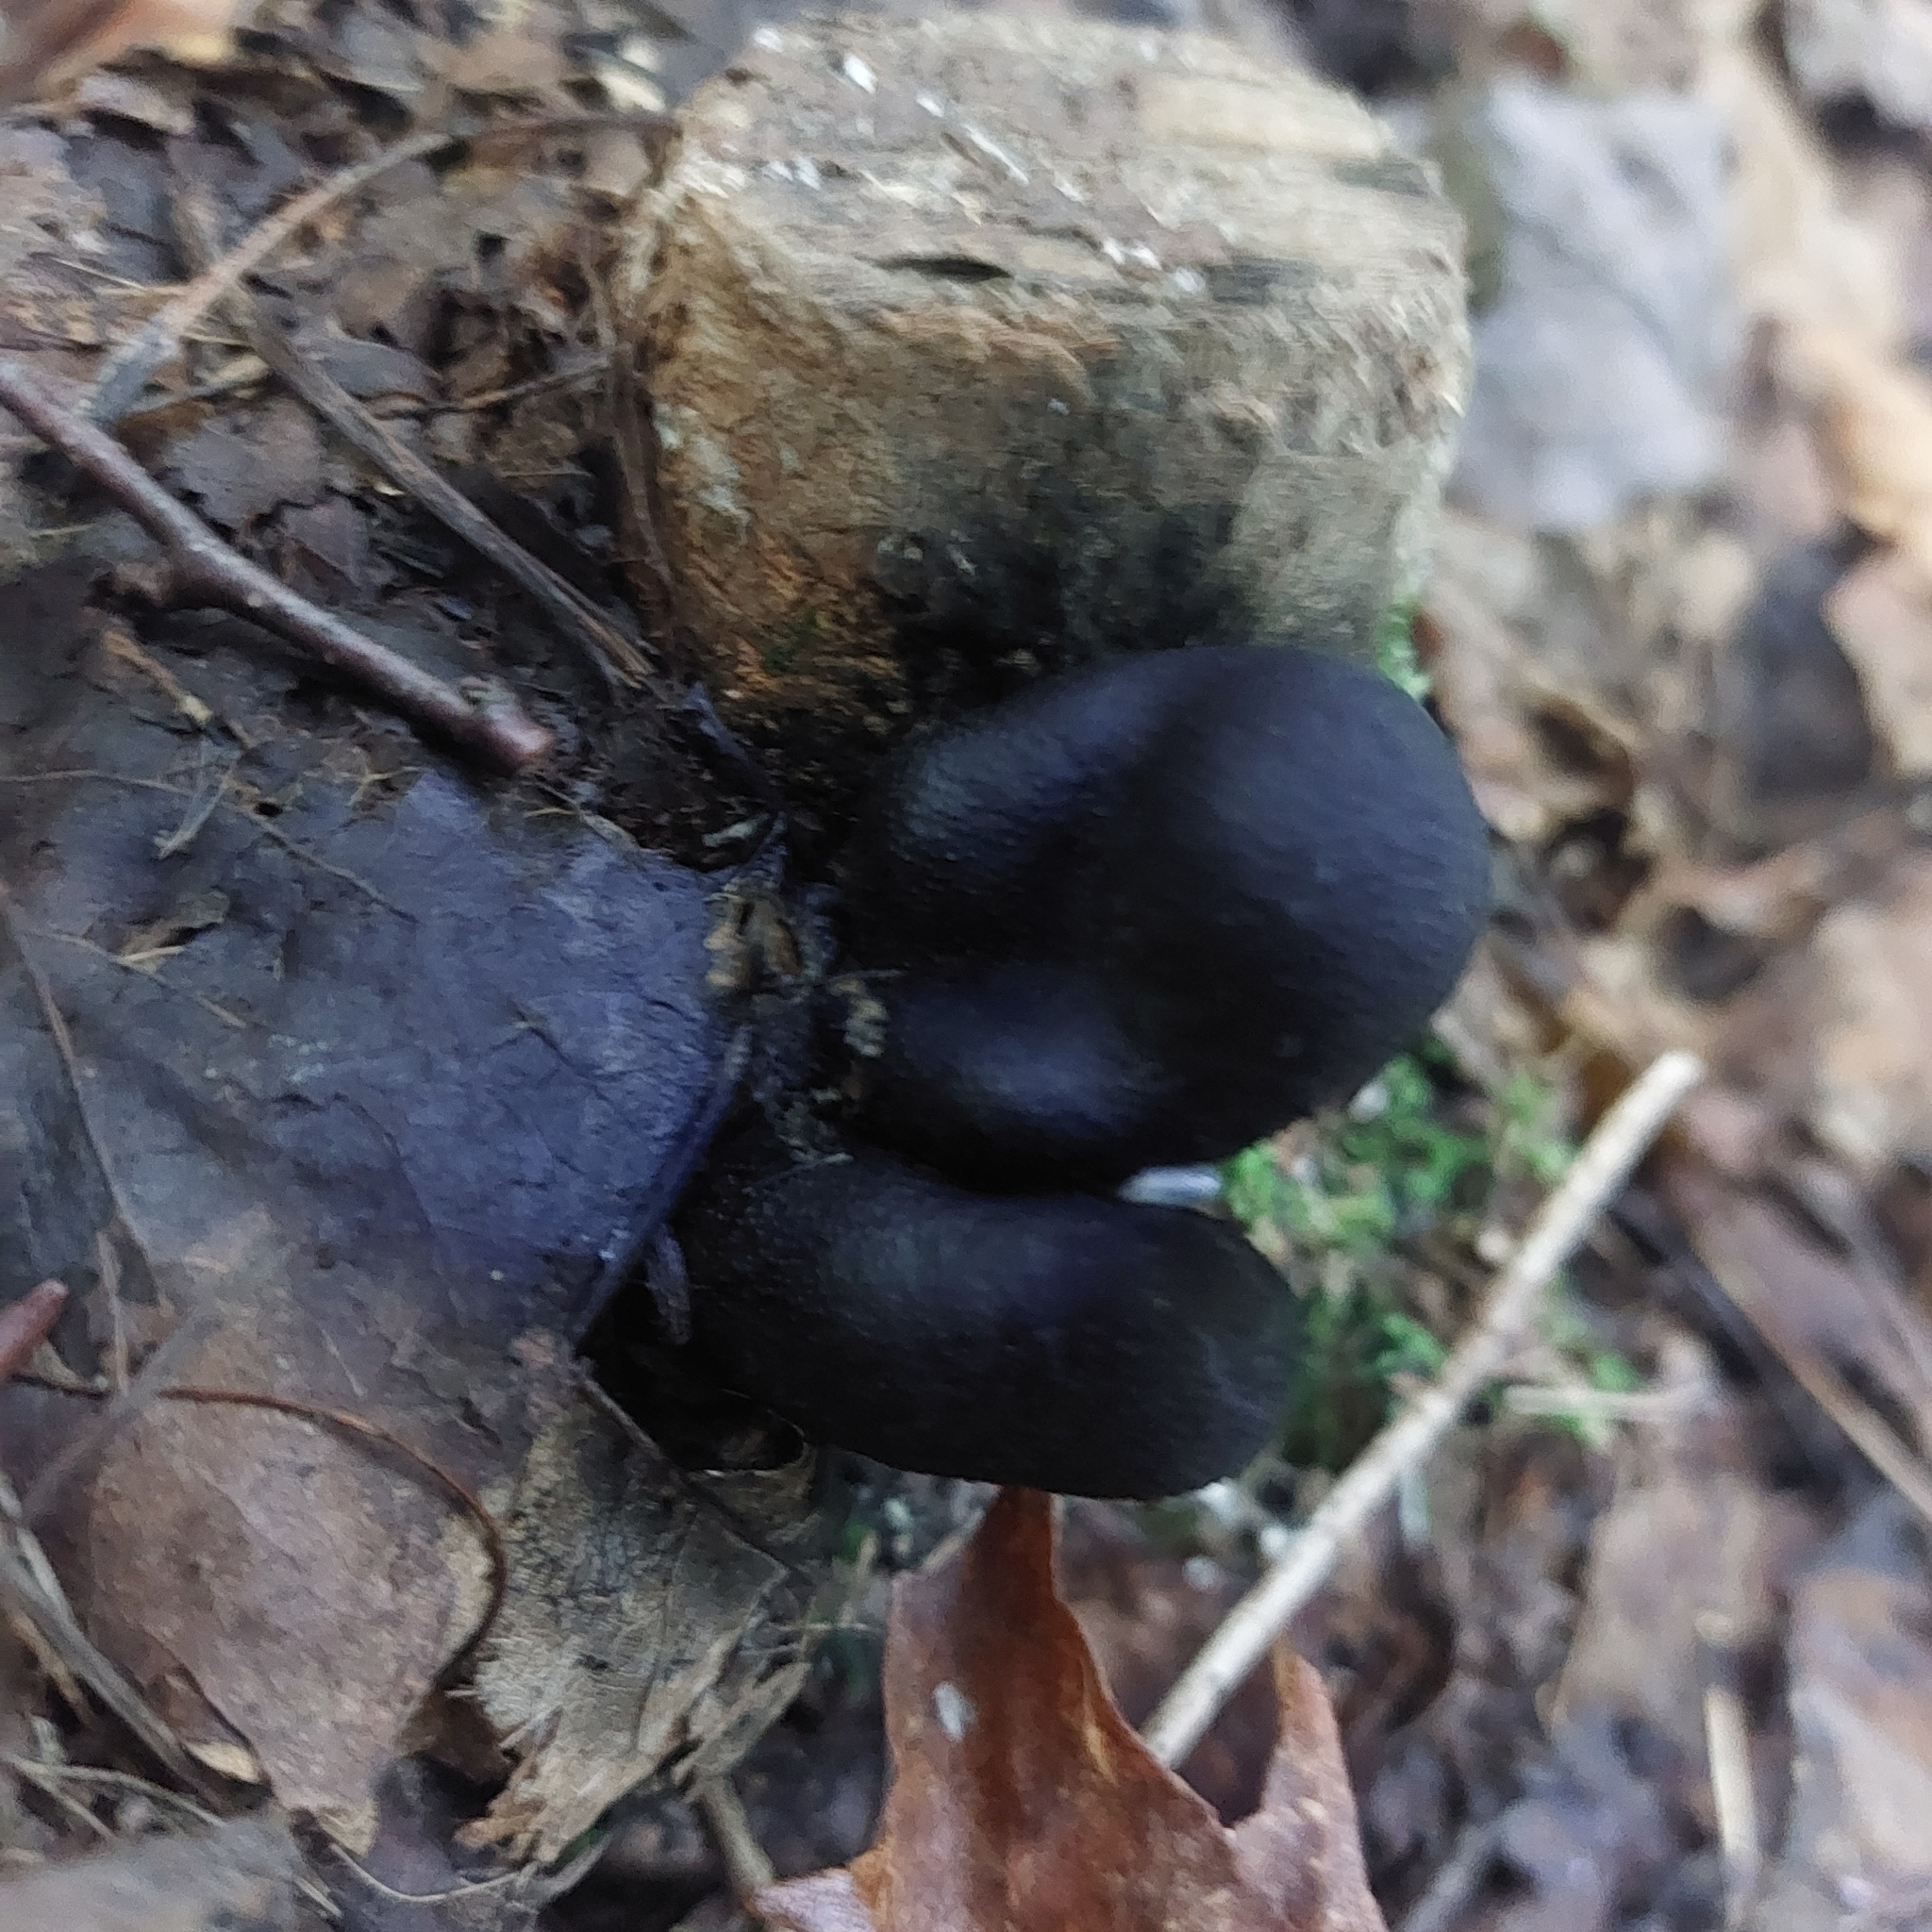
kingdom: Fungi
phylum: Ascomycota
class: Sordariomycetes
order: Xylariales
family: Xylariaceae
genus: Xylaria
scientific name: Xylaria polymorpha
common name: Dead man's fingers
